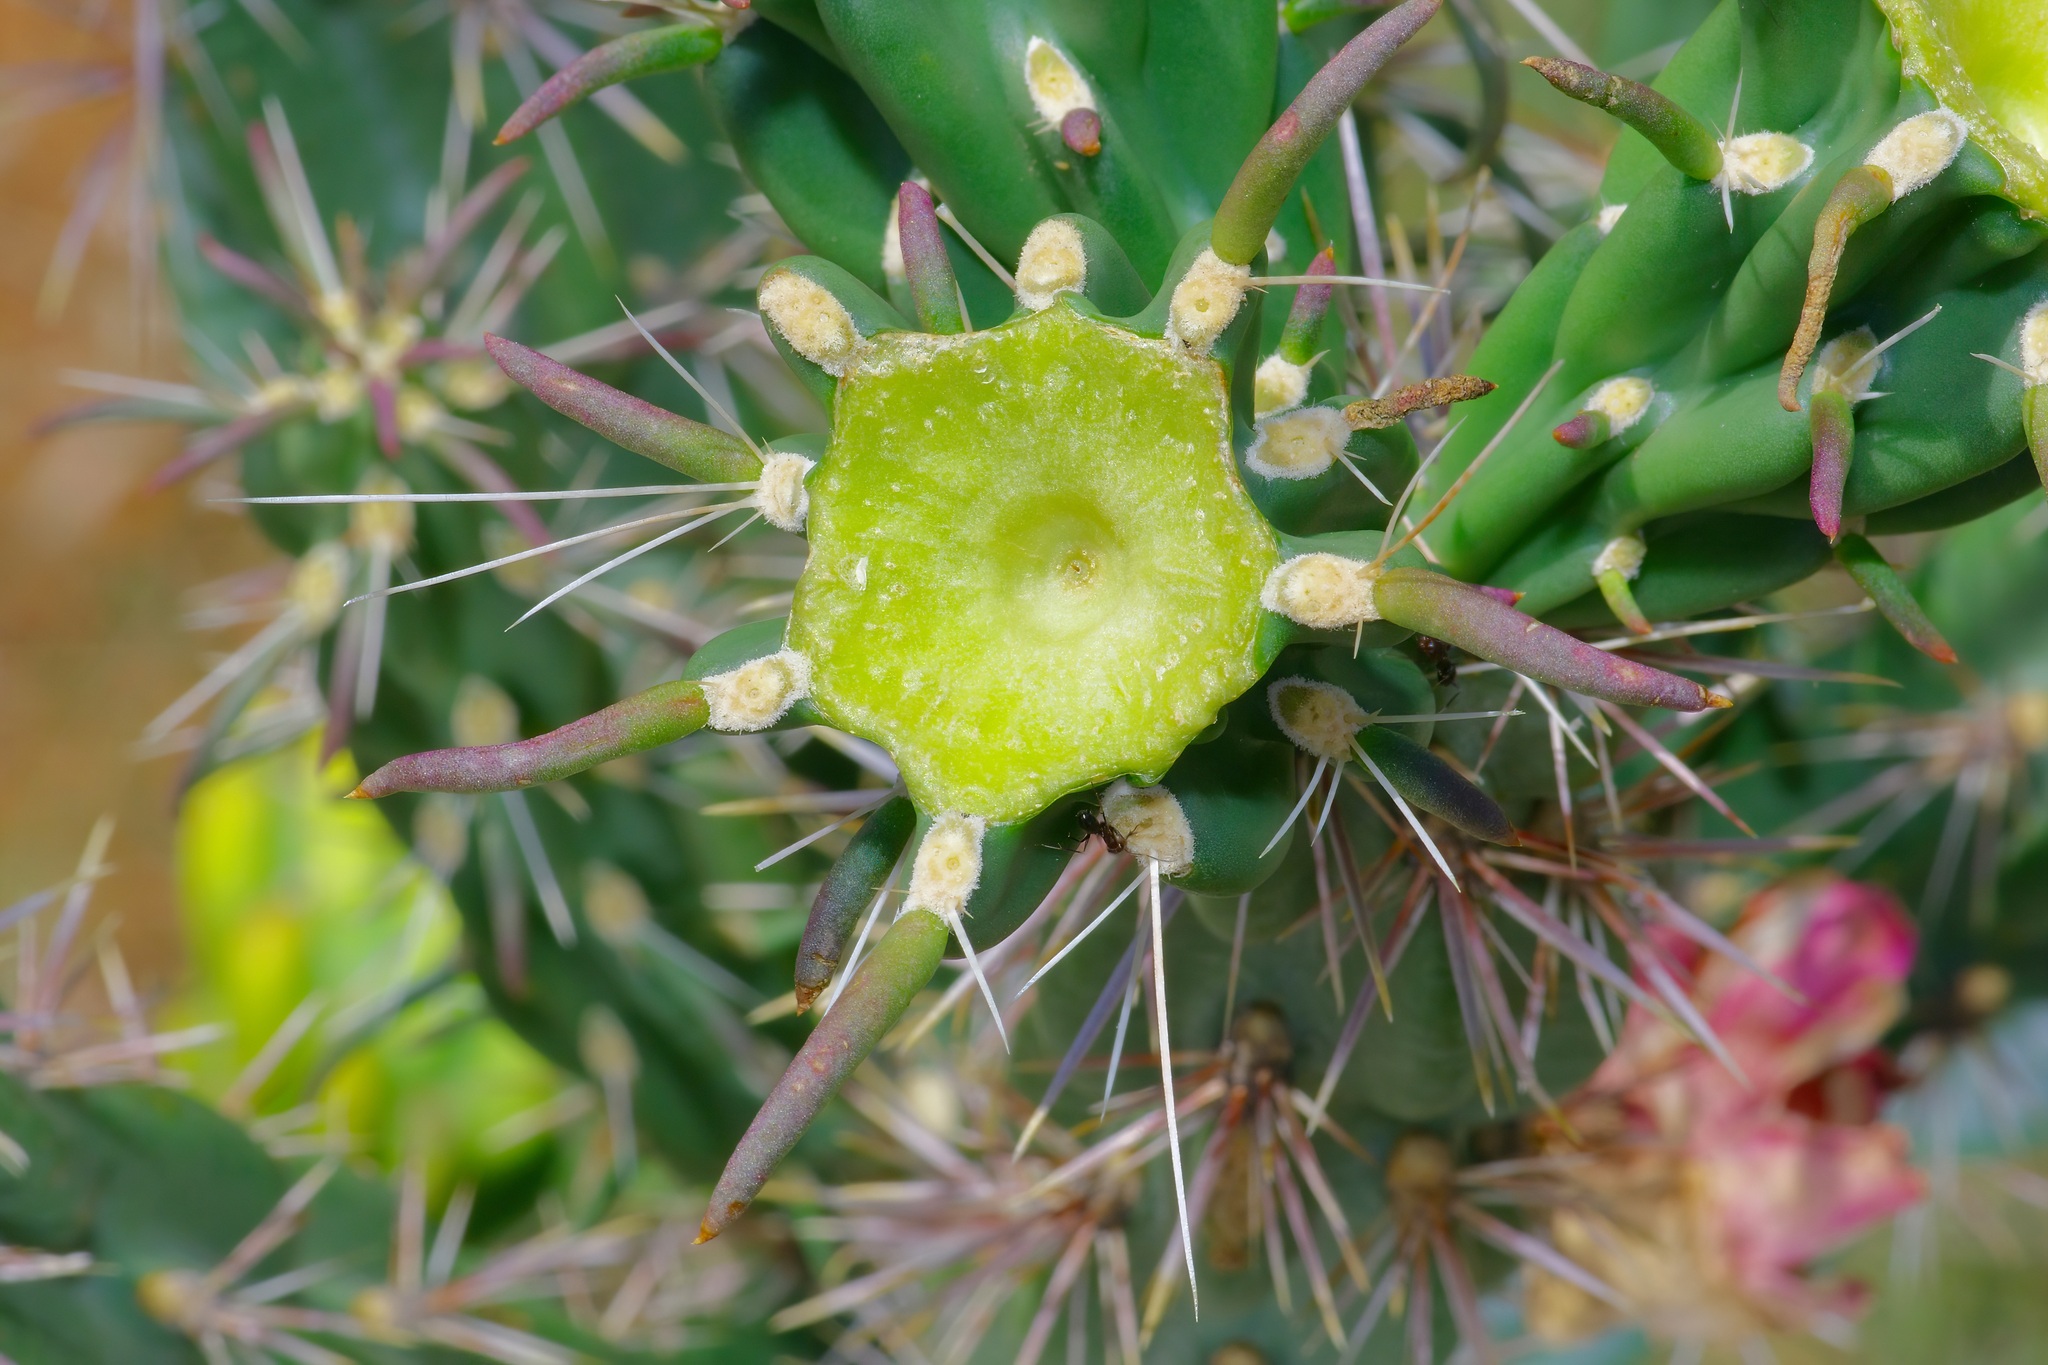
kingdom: Plantae
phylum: Tracheophyta
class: Magnoliopsida
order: Caryophyllales
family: Cactaceae
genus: Cylindropuntia
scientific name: Cylindropuntia imbricata
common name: Candelabrum cactus
